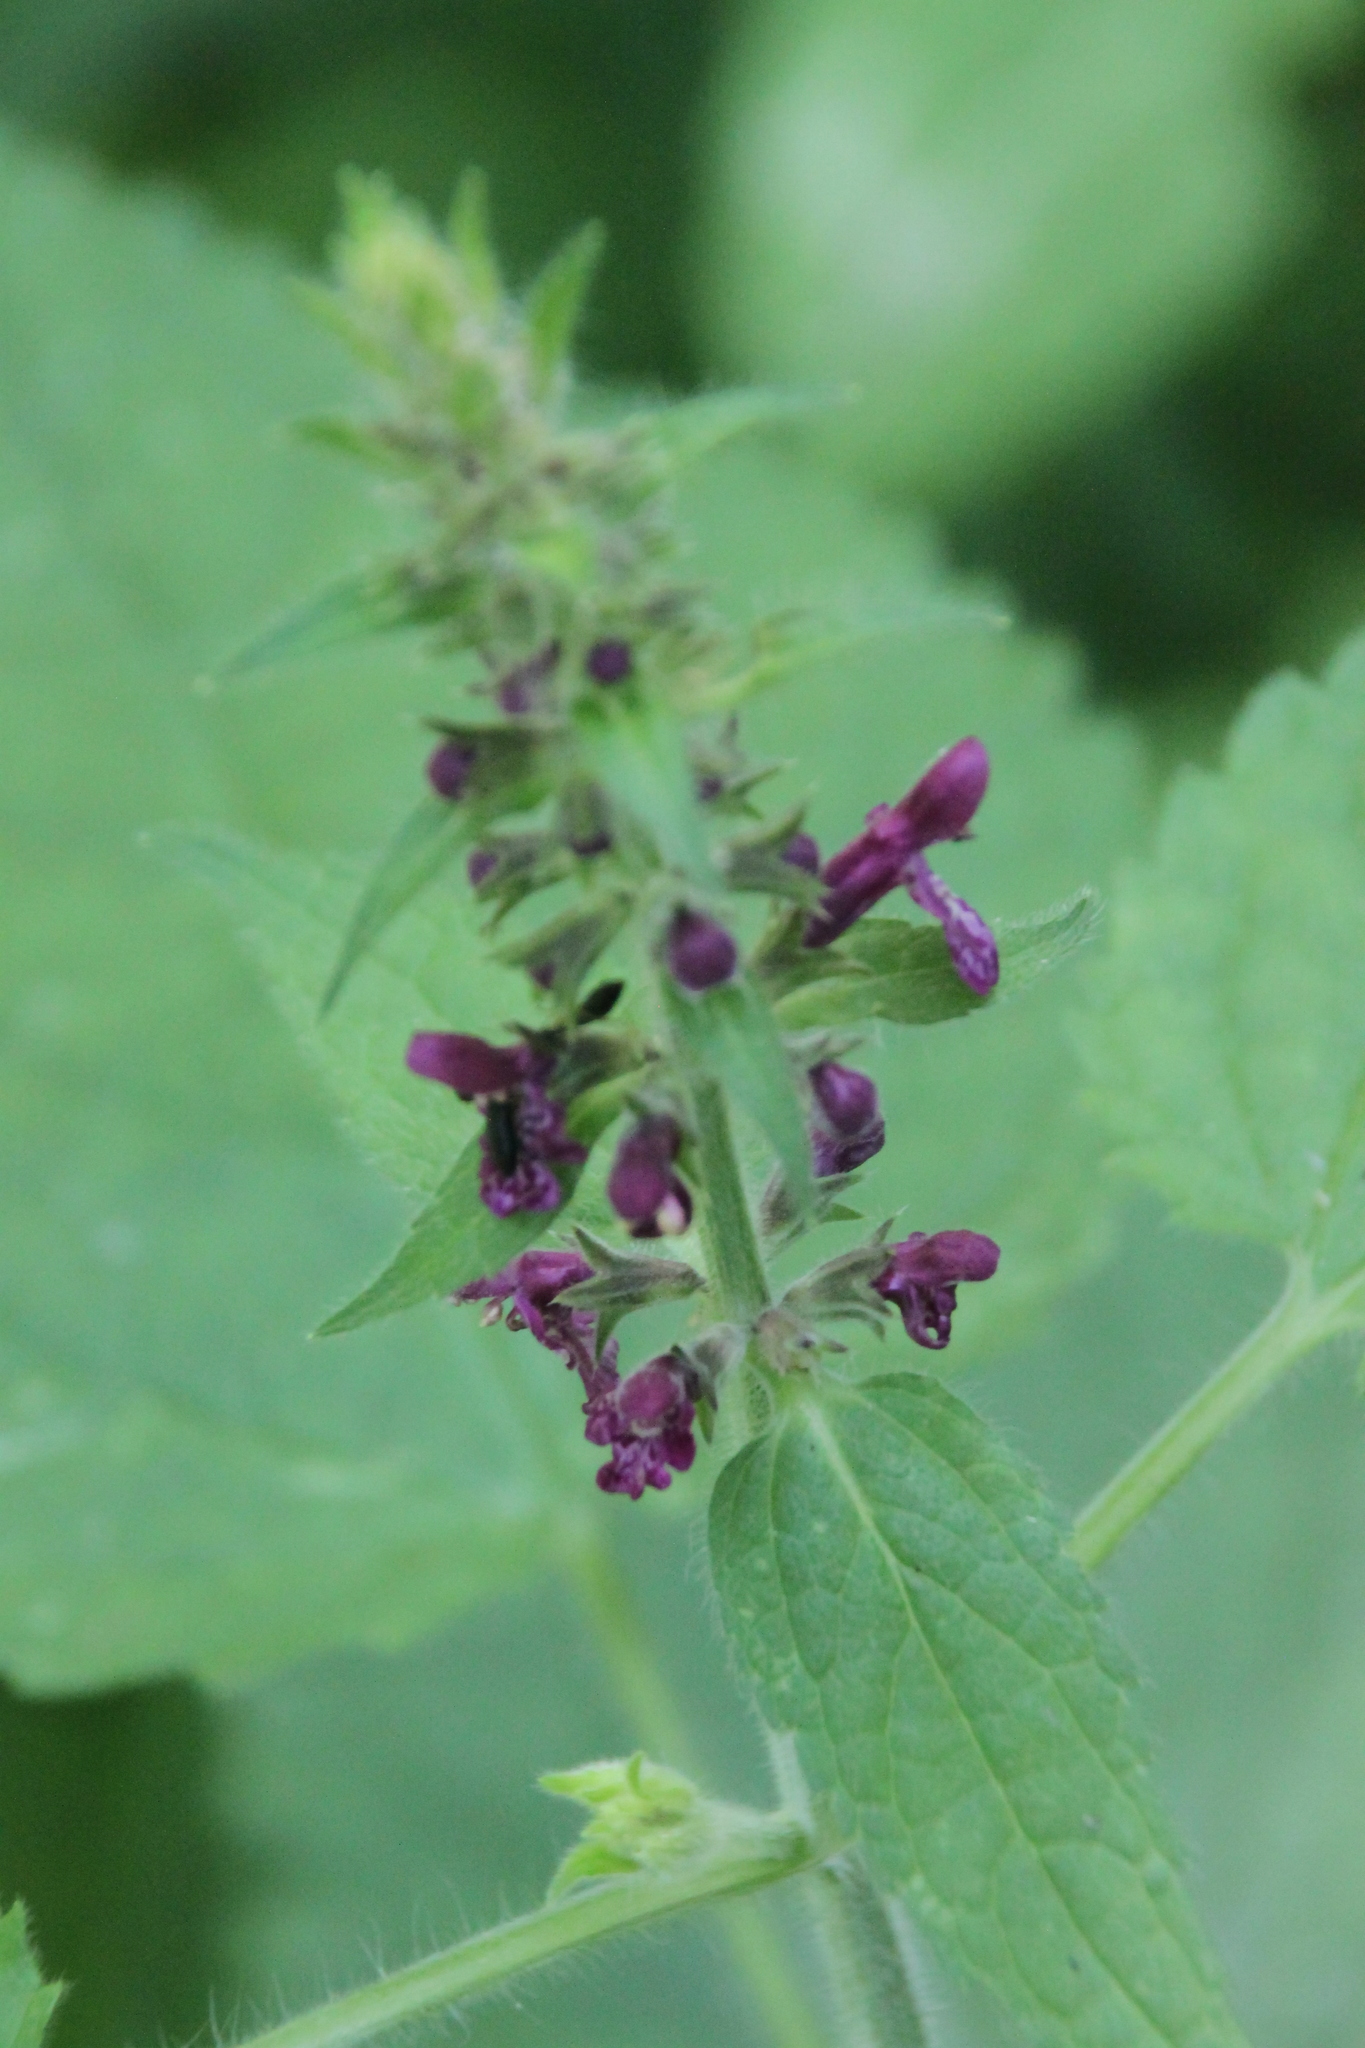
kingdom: Plantae
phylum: Tracheophyta
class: Magnoliopsida
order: Lamiales
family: Lamiaceae
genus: Stachys
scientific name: Stachys sylvatica
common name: Hedge woundwort
